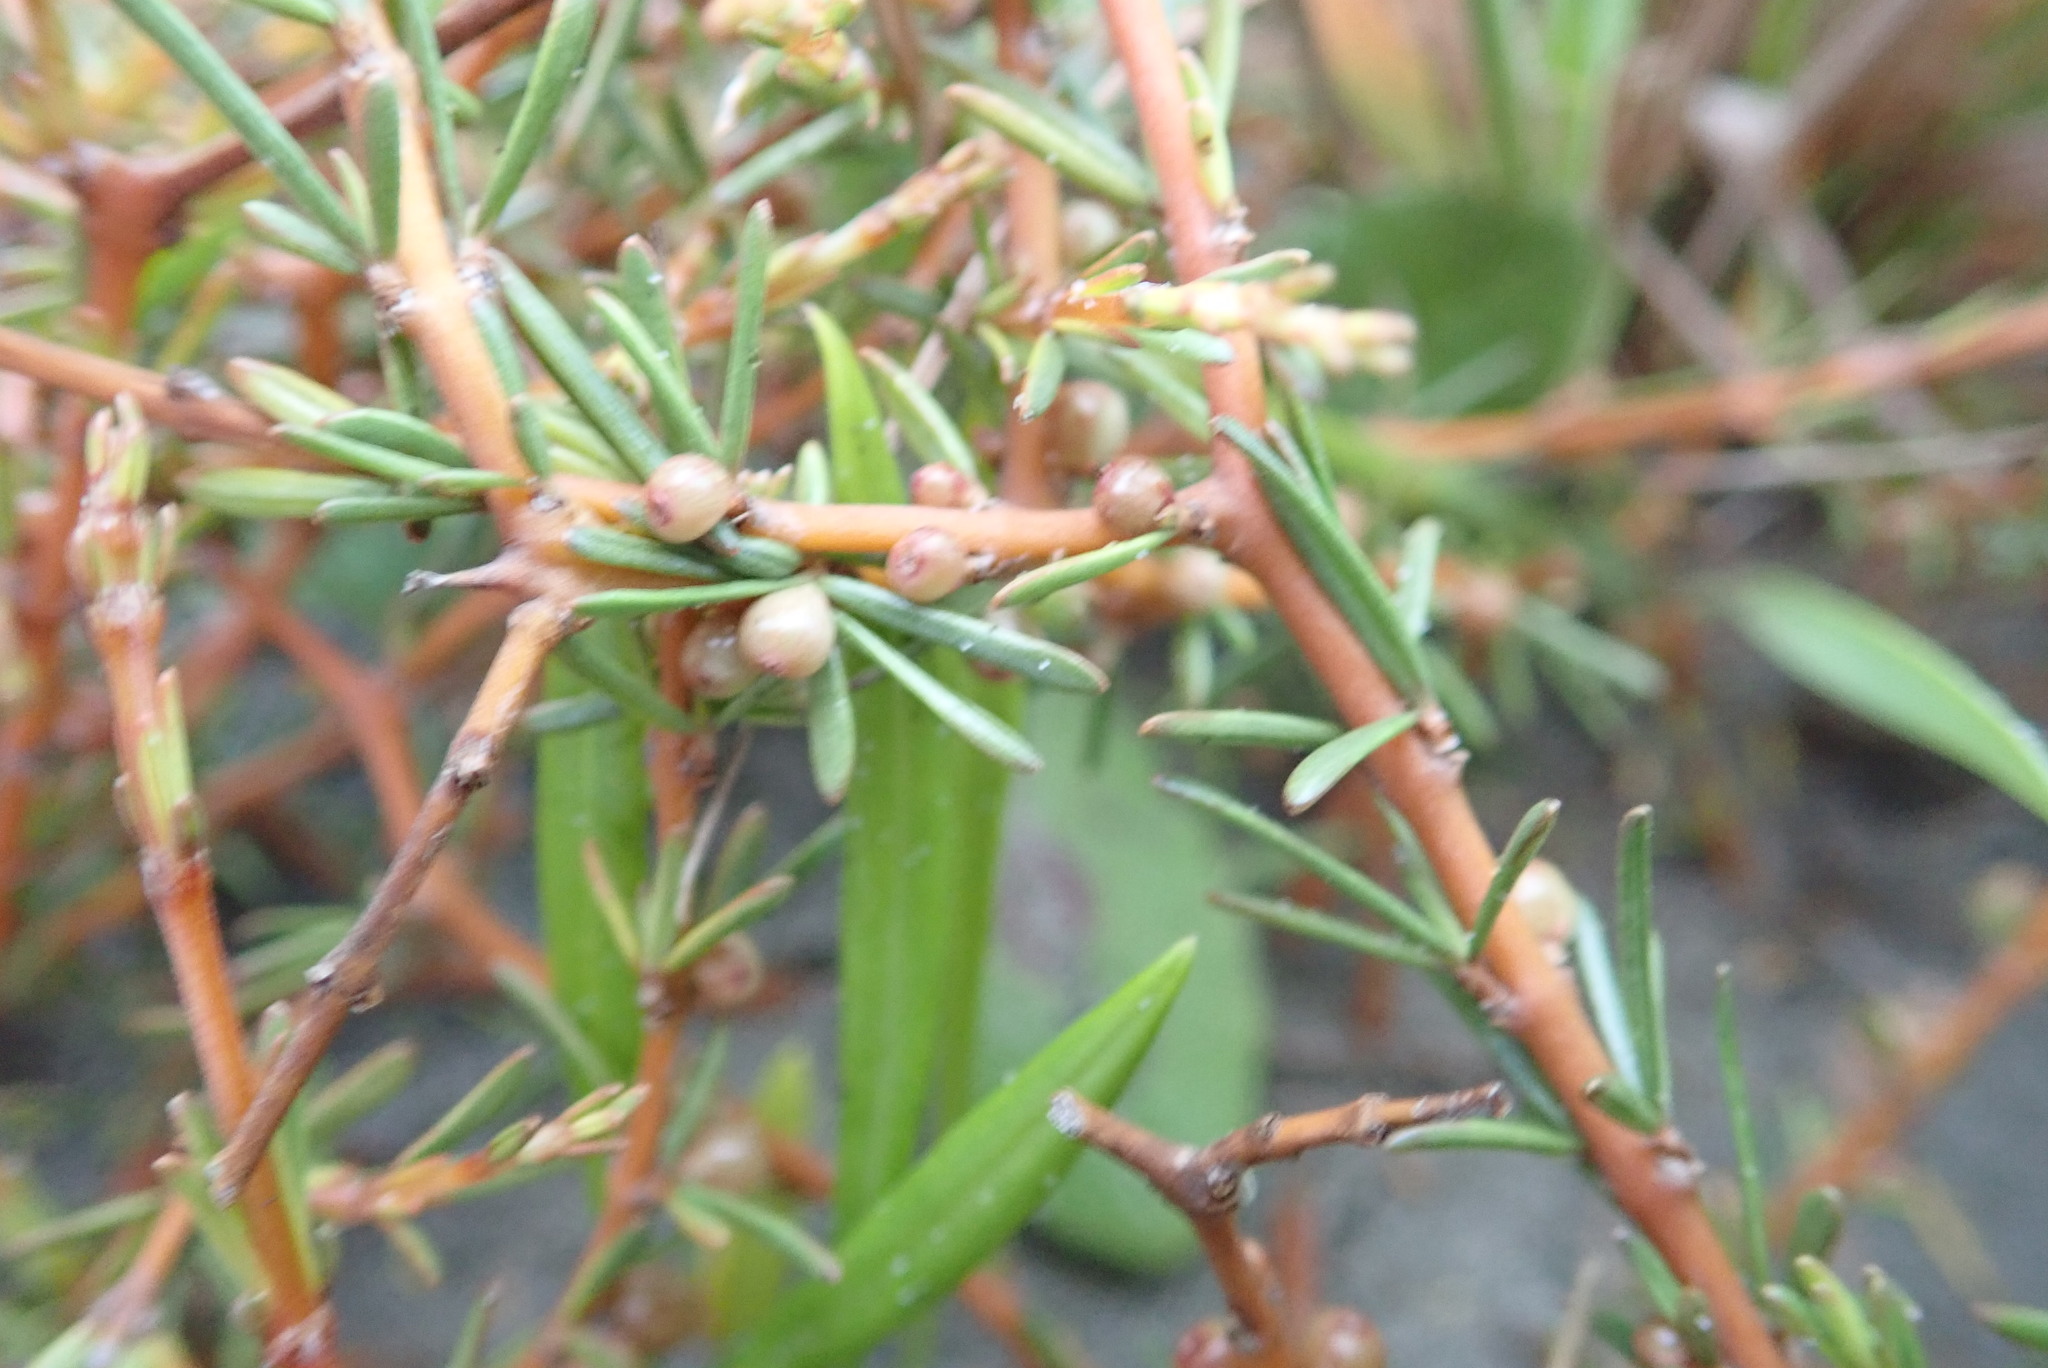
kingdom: Plantae
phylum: Tracheophyta
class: Magnoliopsida
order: Gentianales
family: Rubiaceae
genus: Coprosma
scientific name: Coprosma acerosa
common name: Sand coprosma
